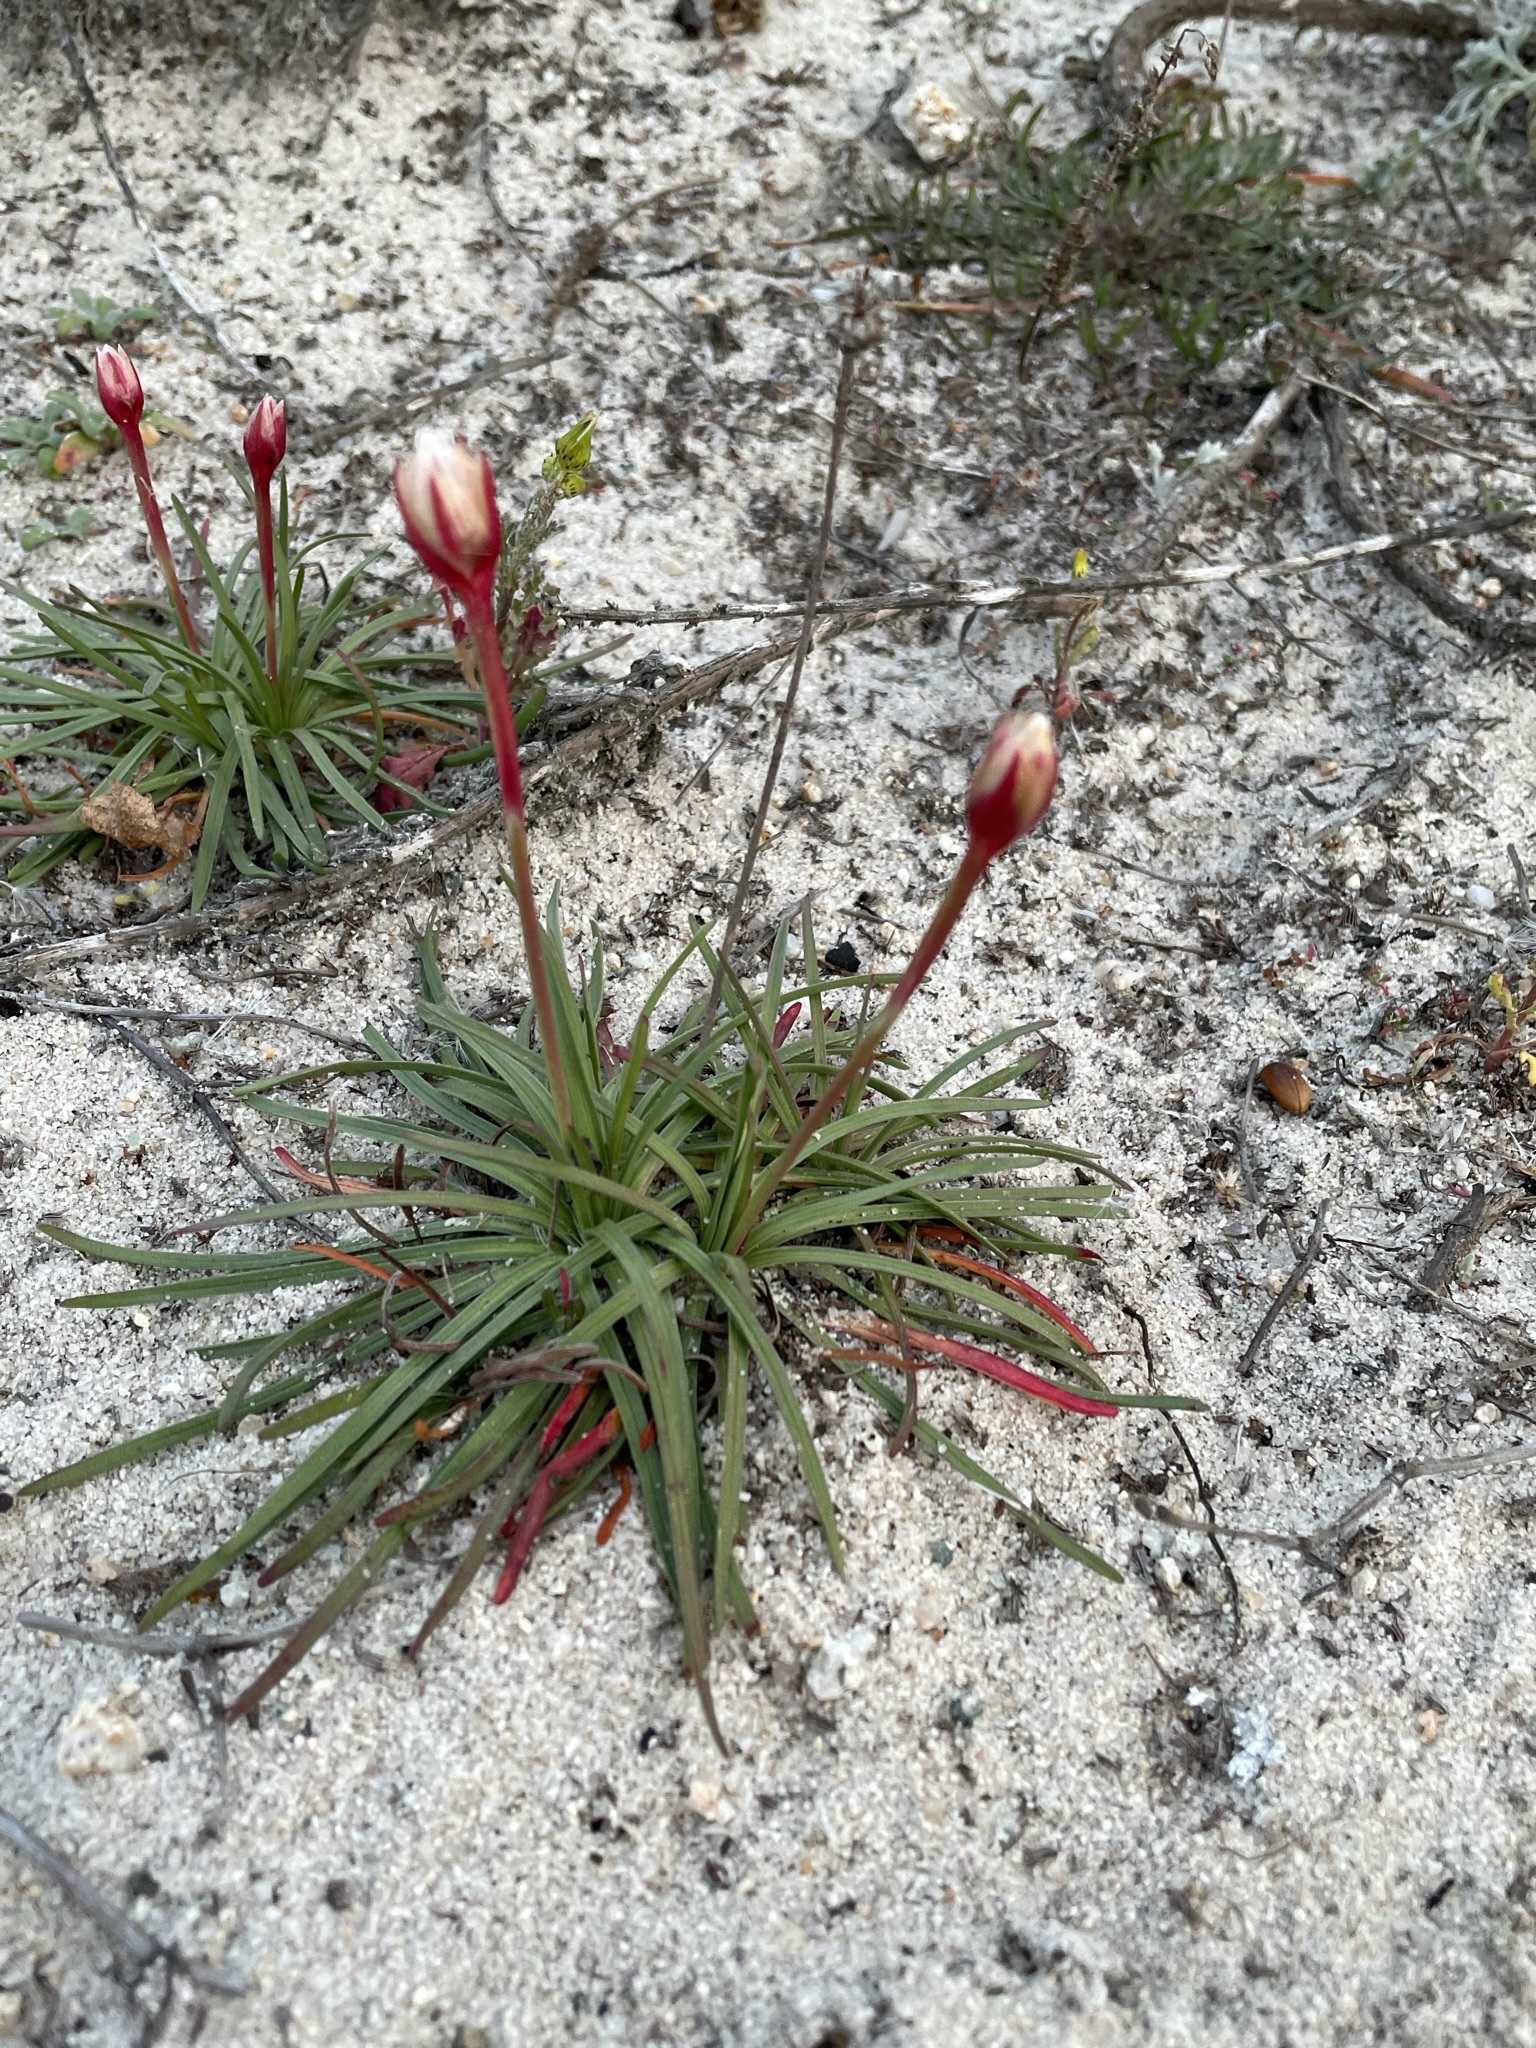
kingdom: Plantae
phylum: Tracheophyta
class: Magnoliopsida
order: Caryophyllales
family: Plumbaginaceae
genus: Armeria
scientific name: Armeria maritima
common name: Thrift
